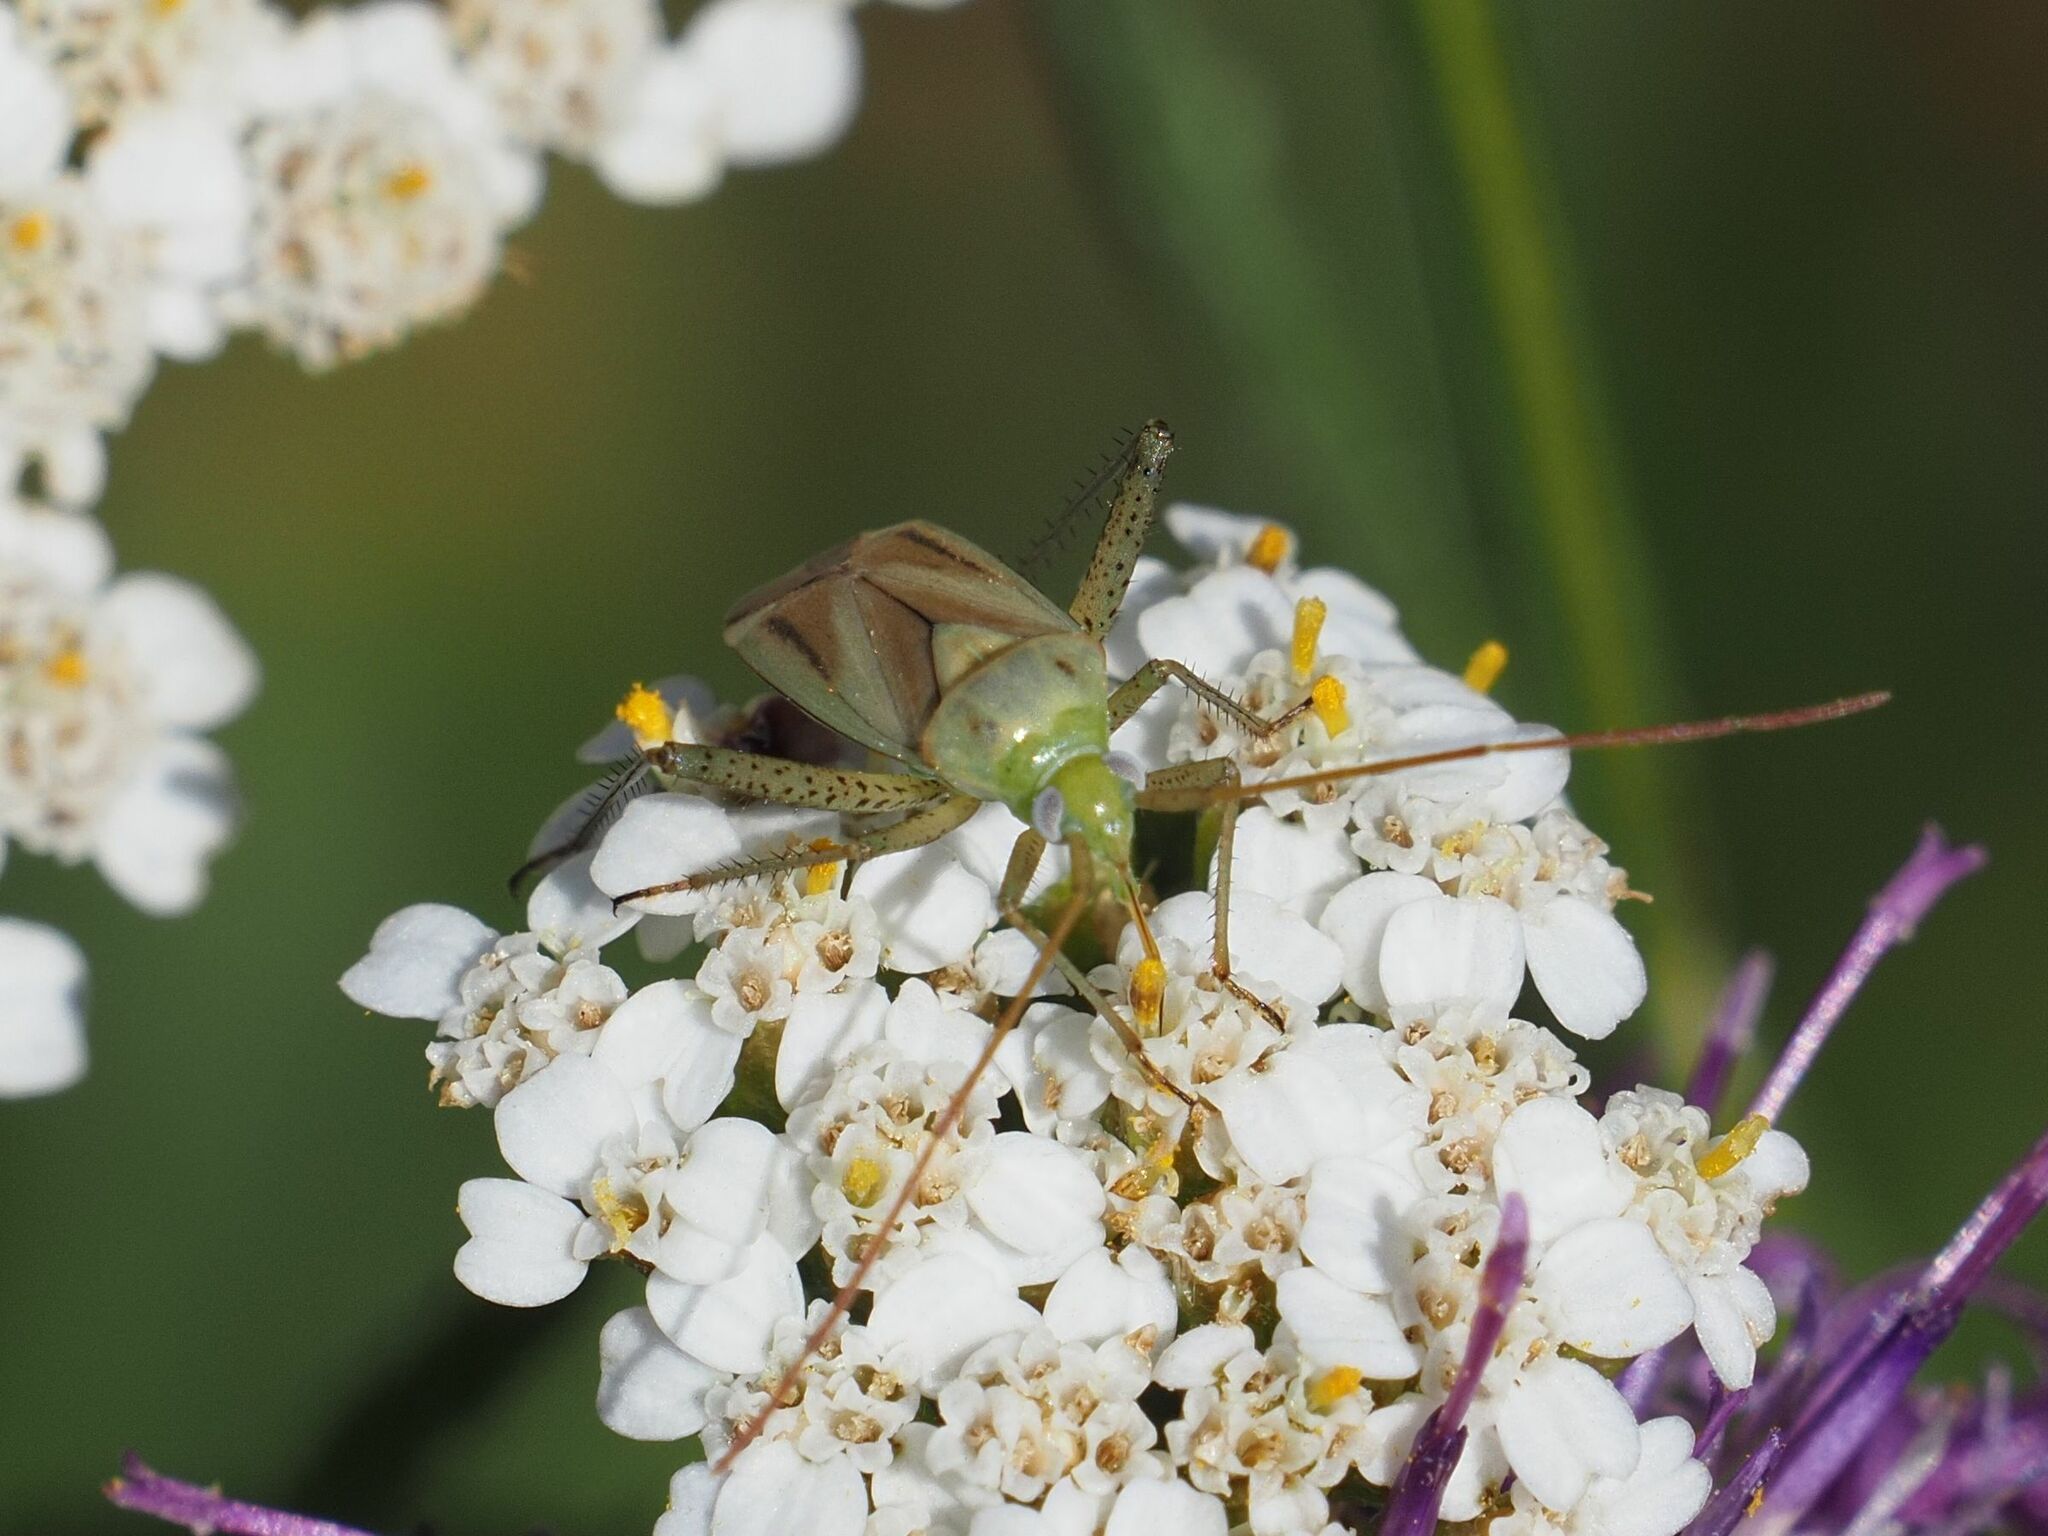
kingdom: Animalia
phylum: Arthropoda
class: Insecta
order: Hemiptera
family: Miridae
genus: Adelphocoris
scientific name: Adelphocoris lineolatus
